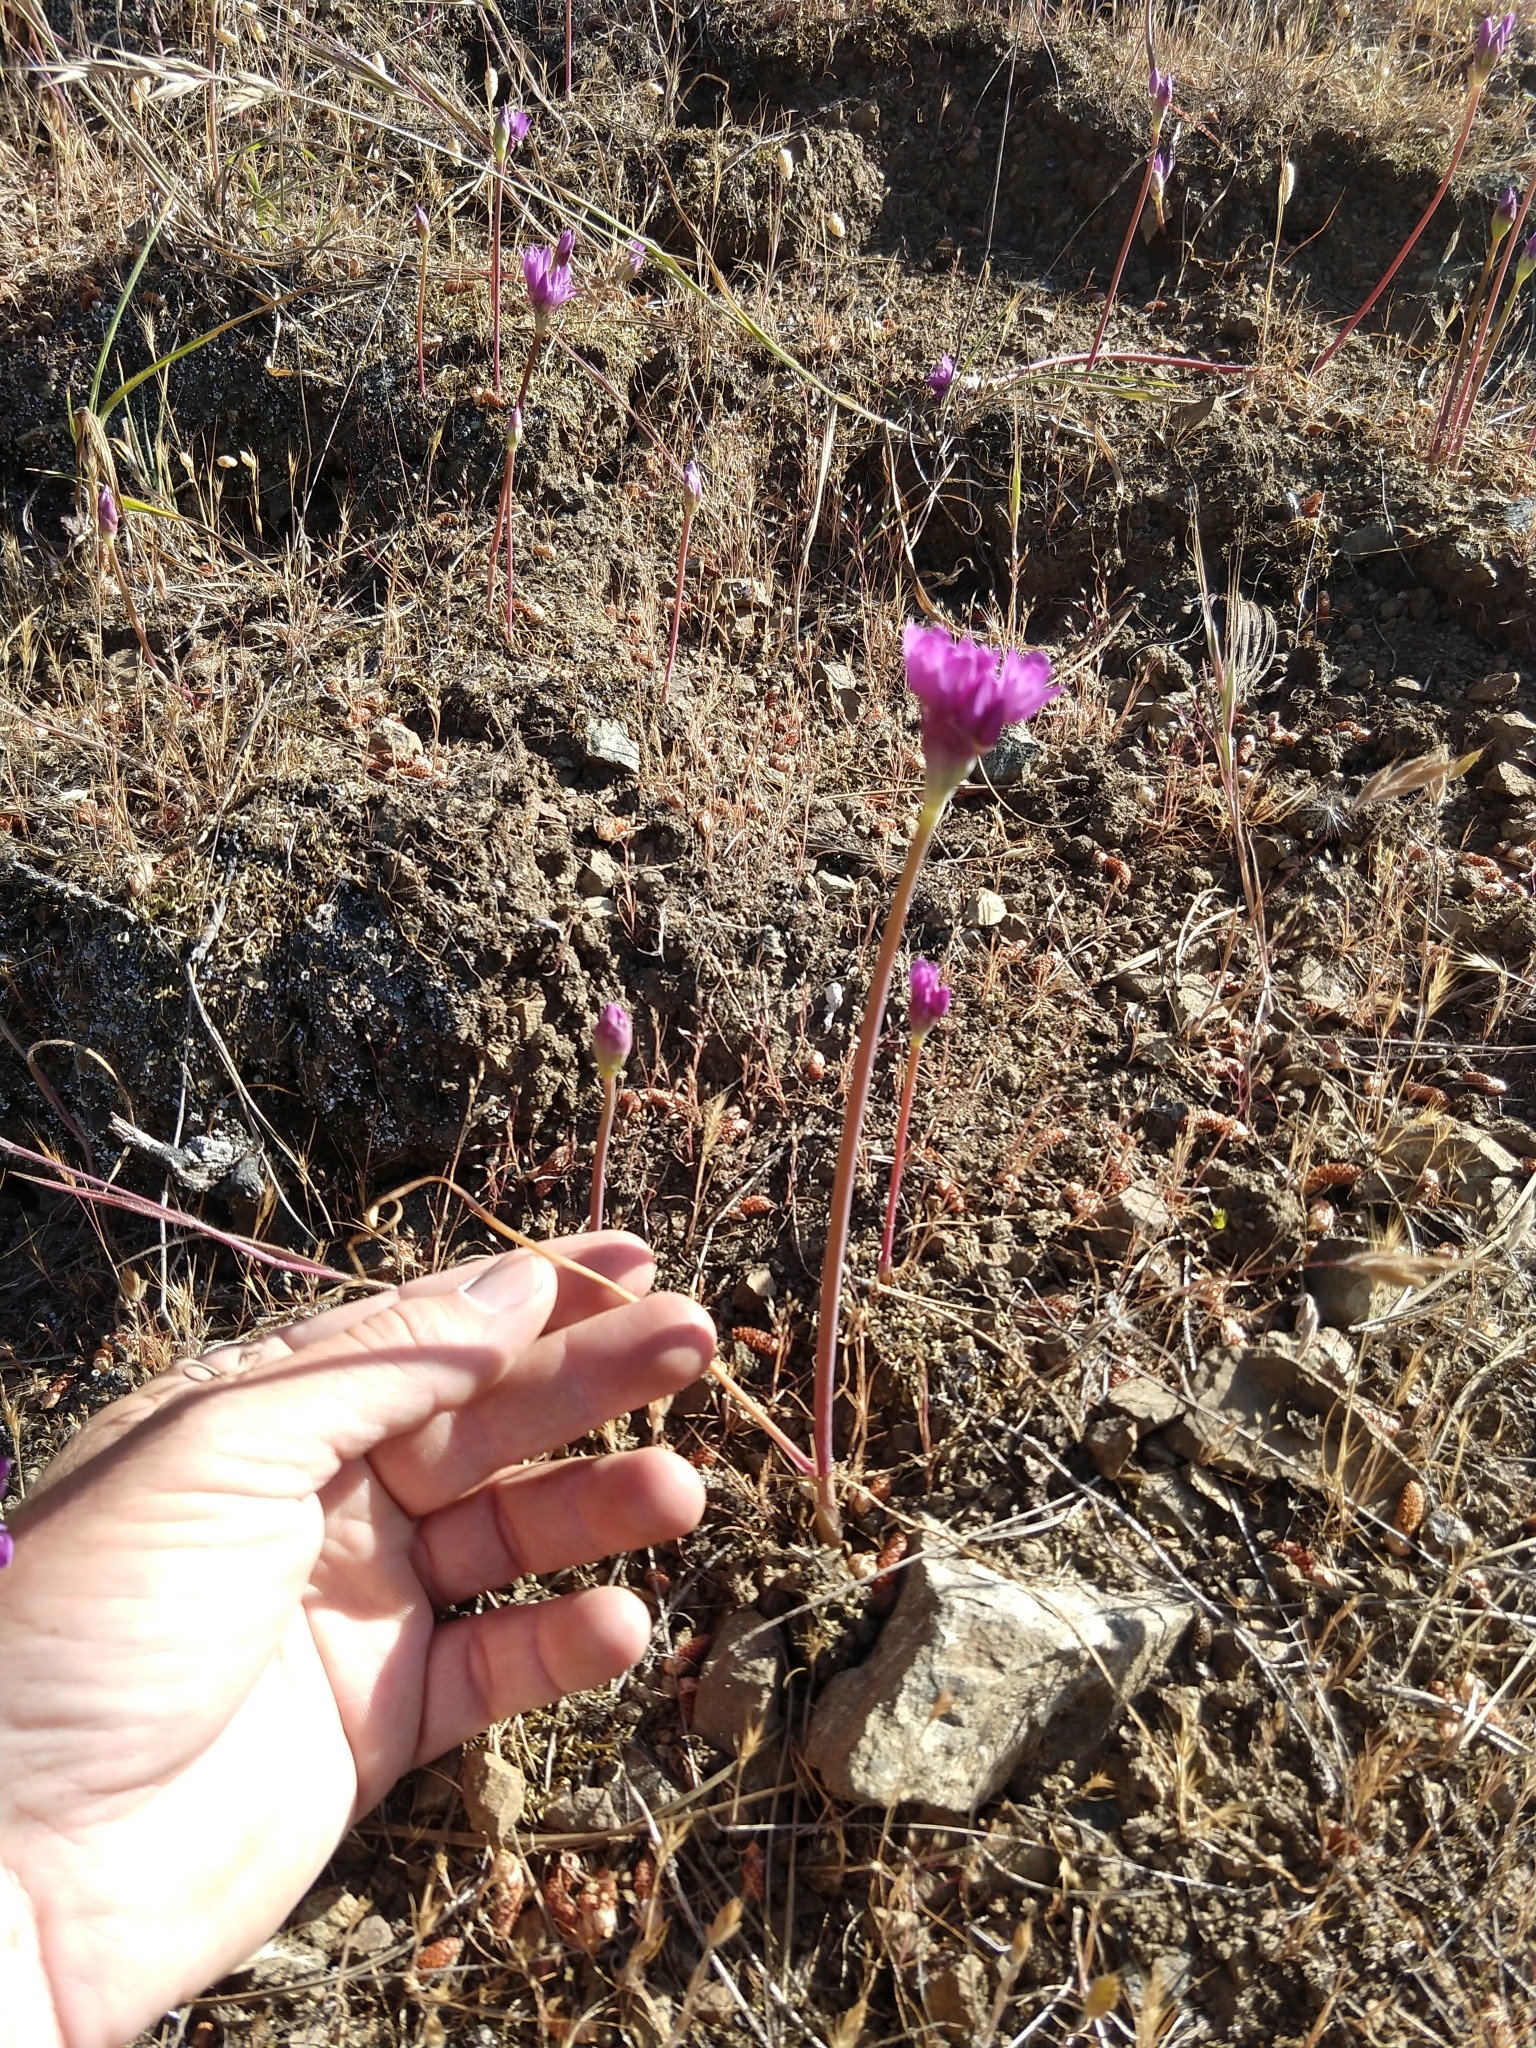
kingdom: Plantae
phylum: Tracheophyta
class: Liliopsida
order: Asparagales
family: Amaryllidaceae
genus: Allium
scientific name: Allium dichlamydeum
